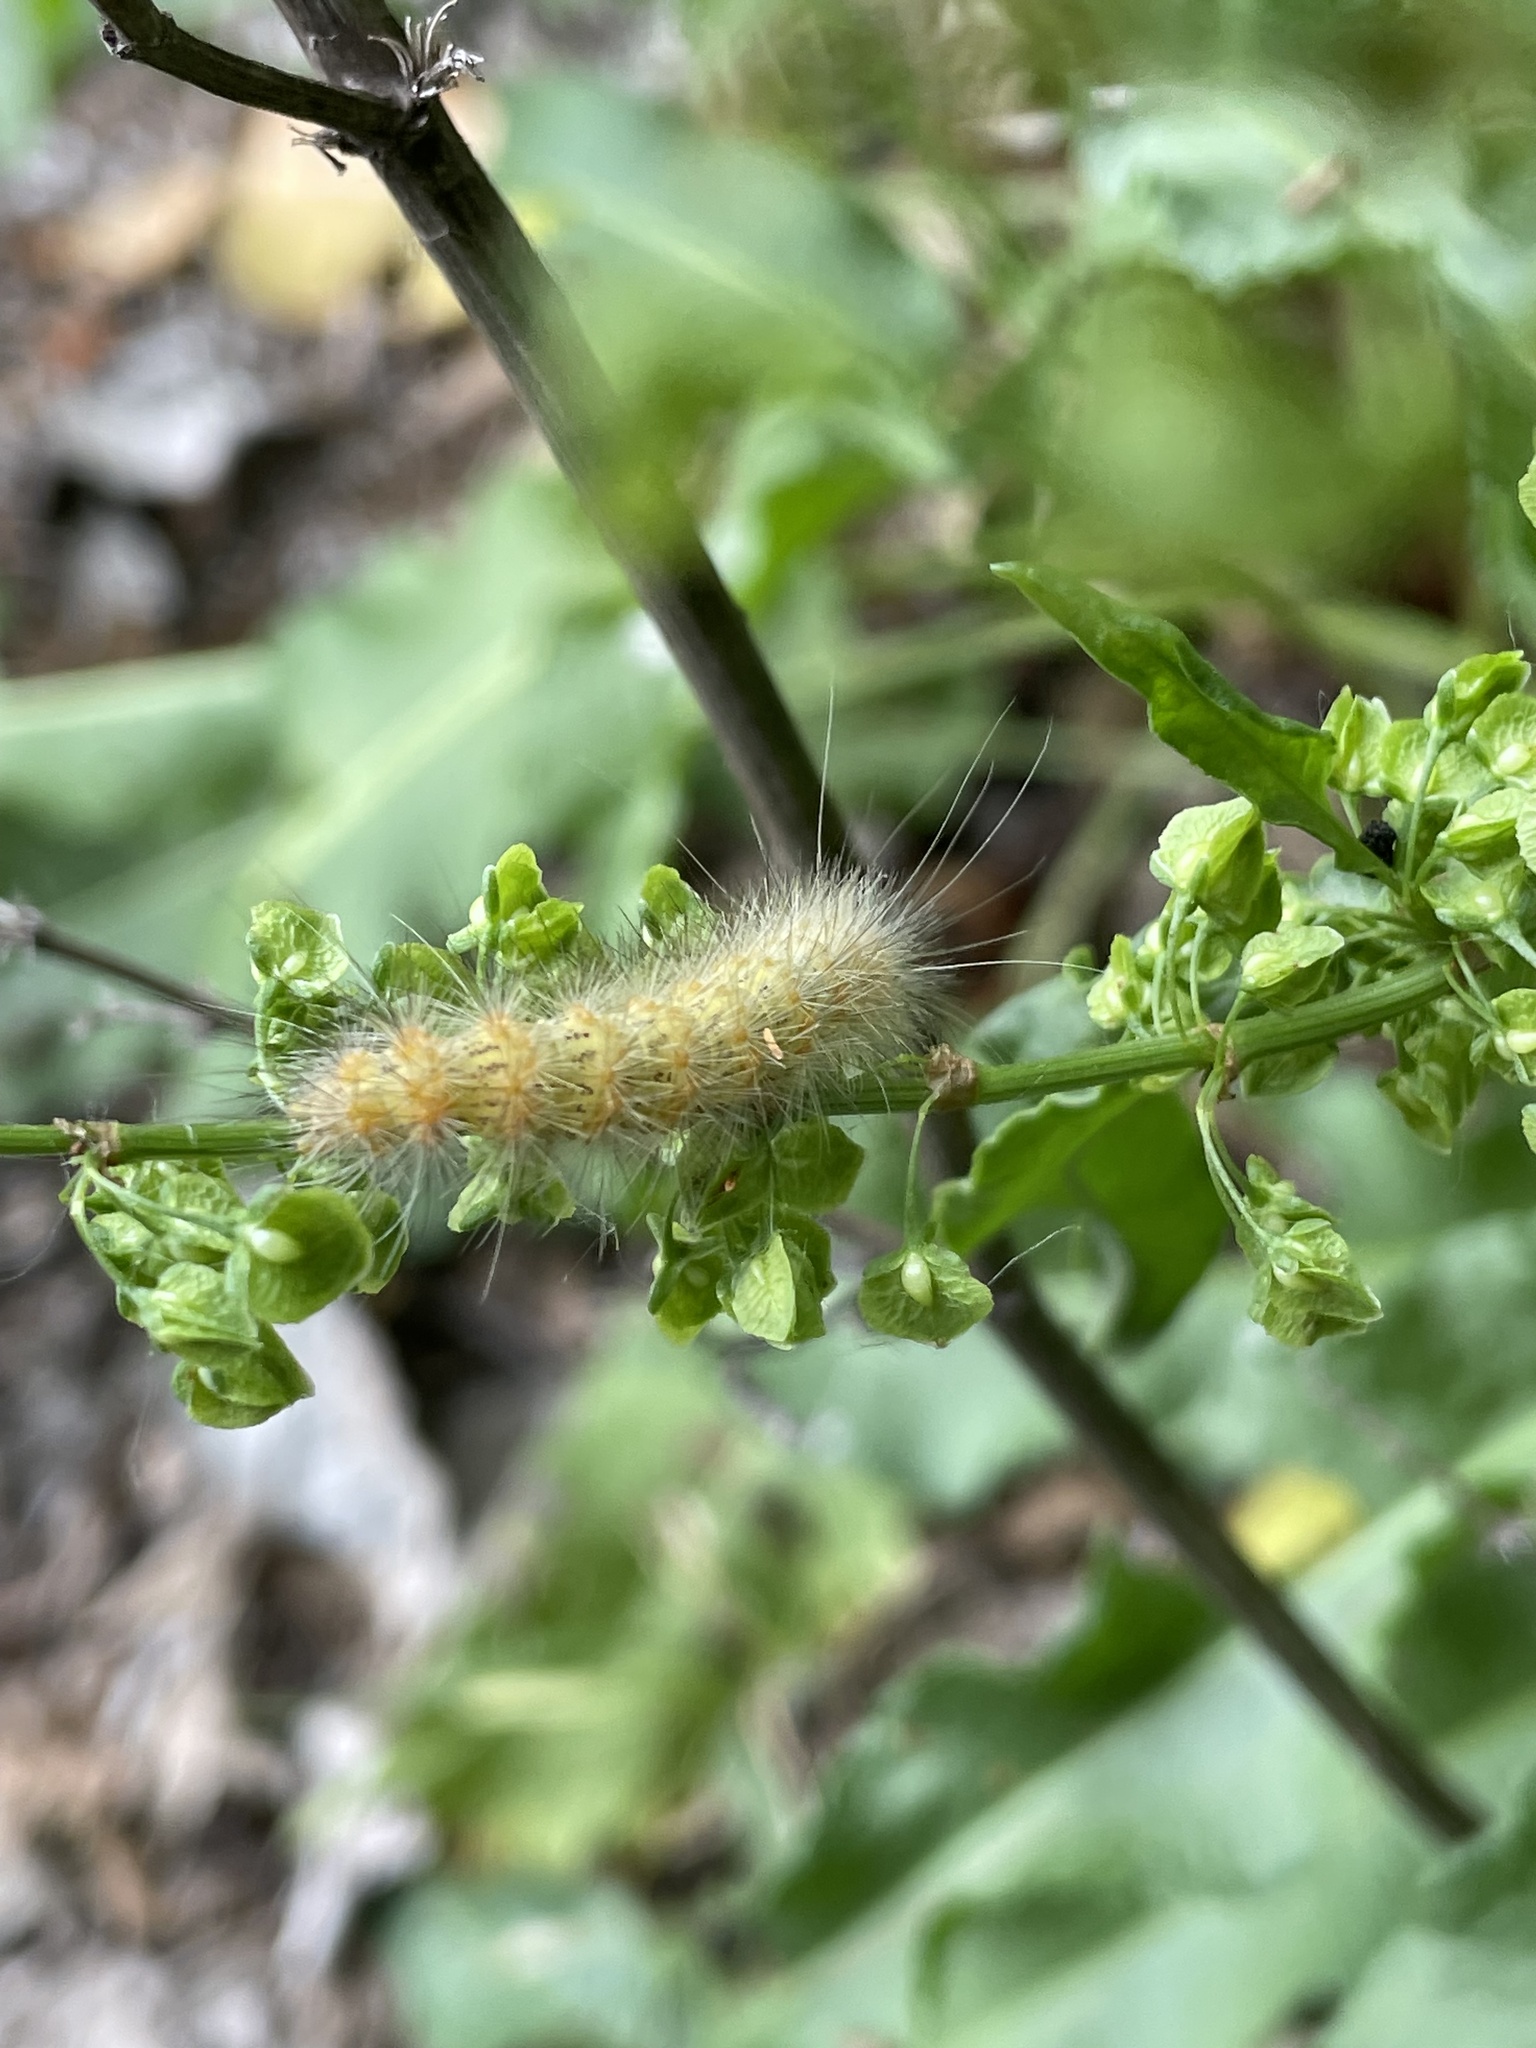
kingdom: Animalia
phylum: Arthropoda
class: Insecta
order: Lepidoptera
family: Erebidae
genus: Estigmene
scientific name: Estigmene acrea
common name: Salt marsh moth
